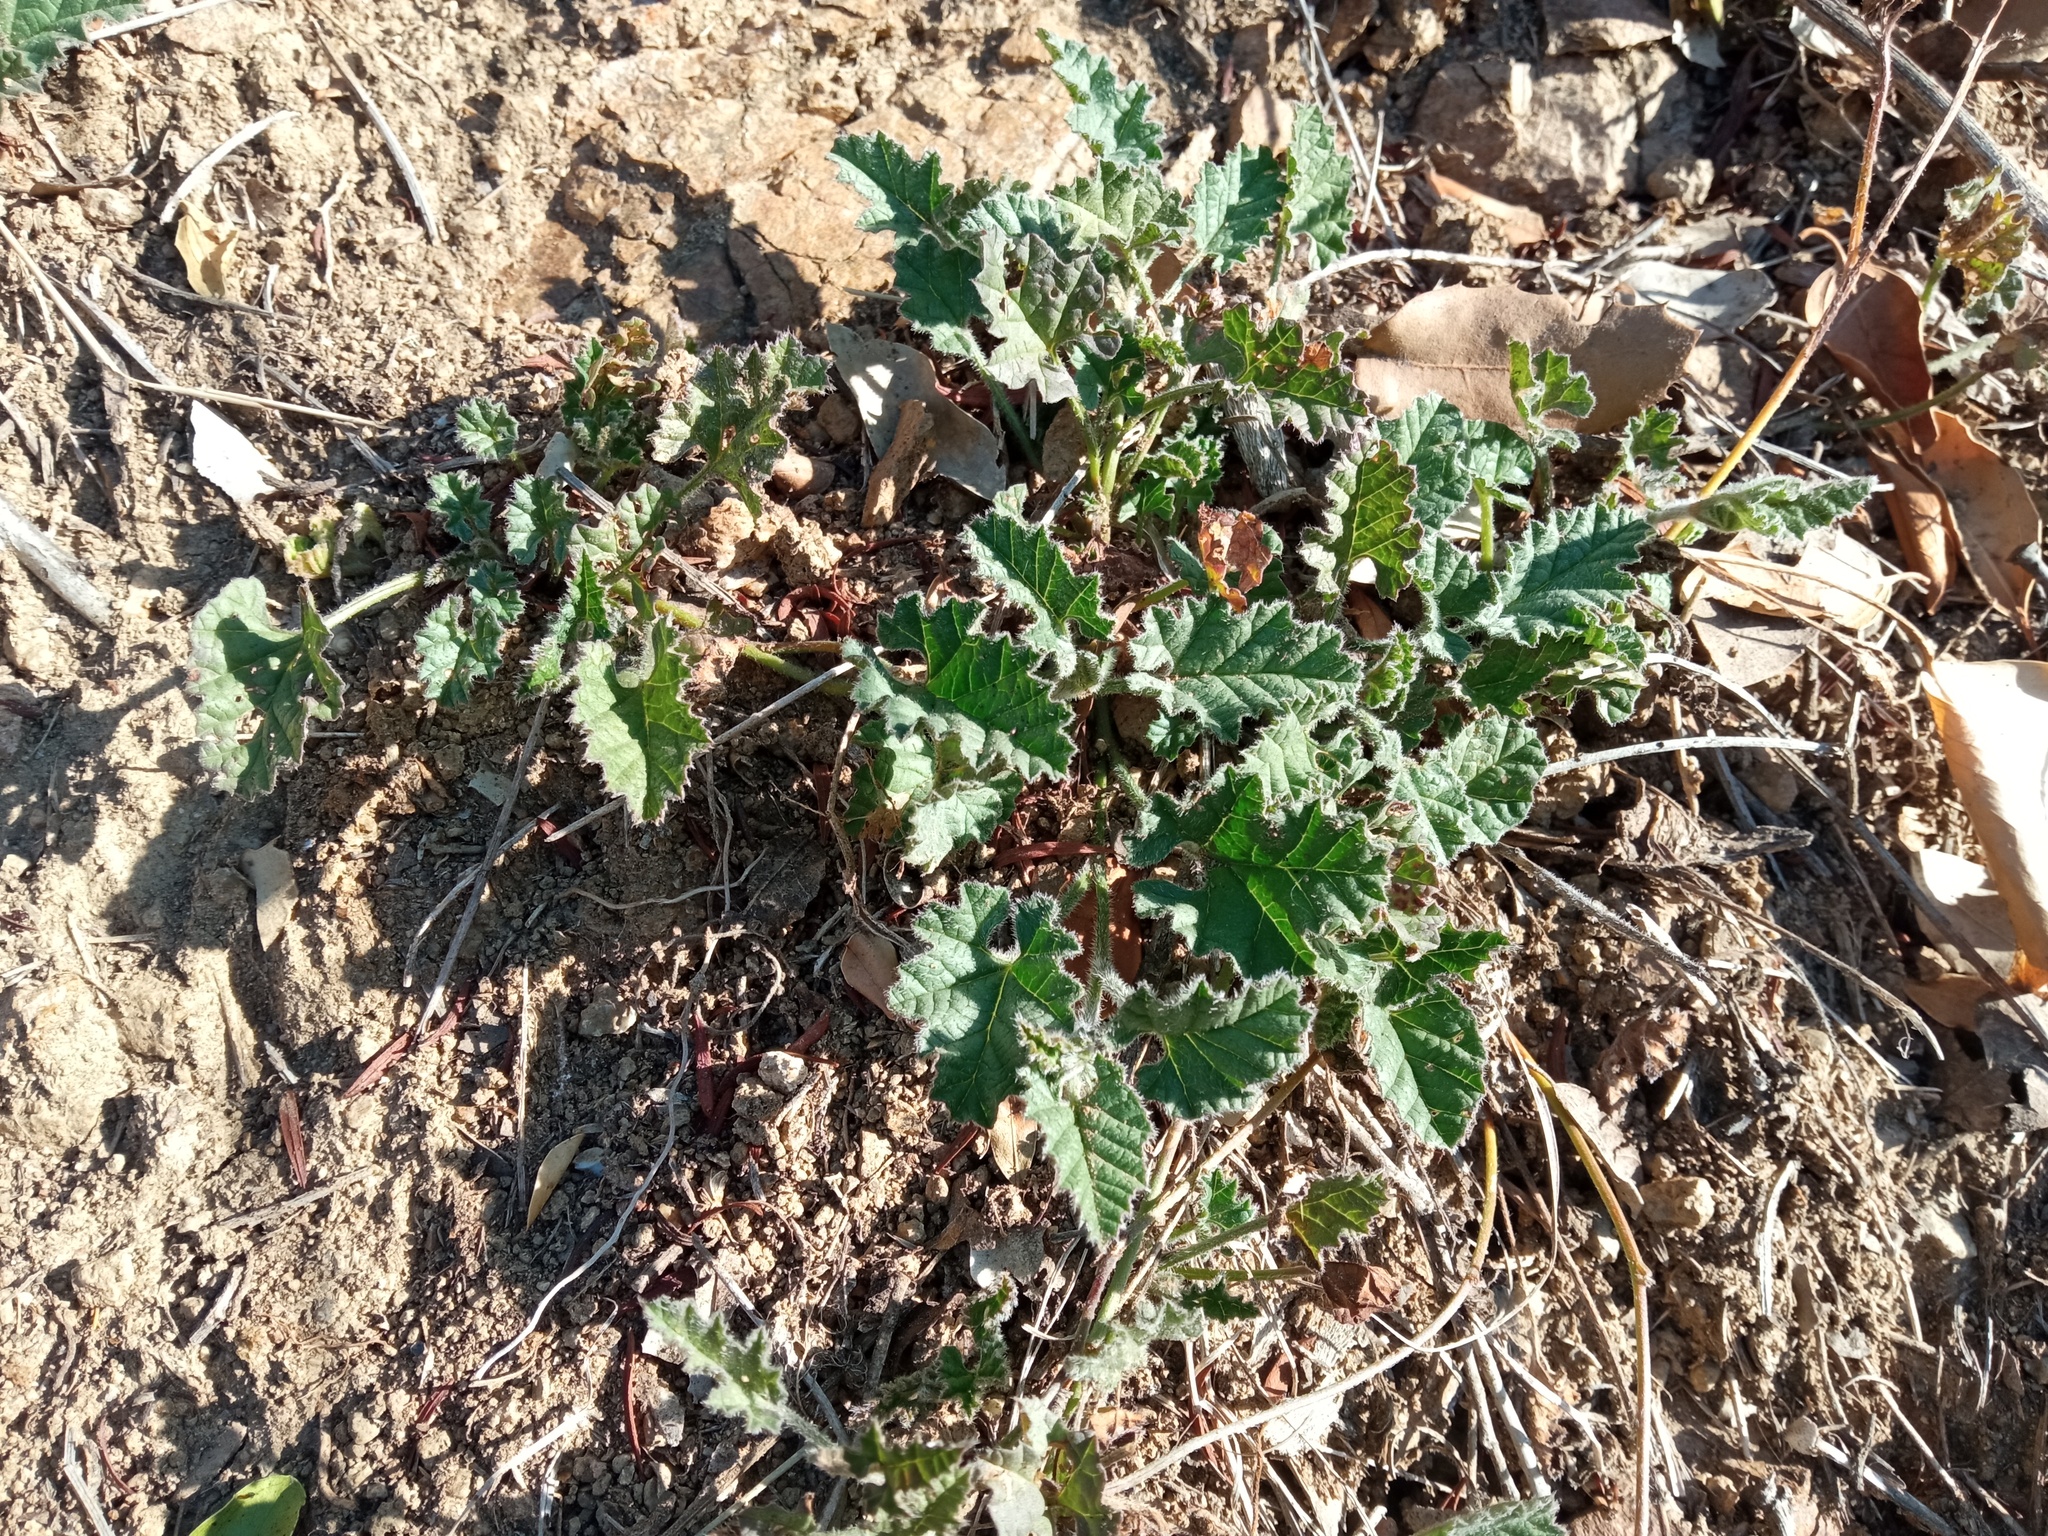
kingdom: Plantae
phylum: Tracheophyta
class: Magnoliopsida
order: Solanales
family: Convolvulaceae
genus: Convolvulus
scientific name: Convolvulus althaeoides
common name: Mallow bindweed
